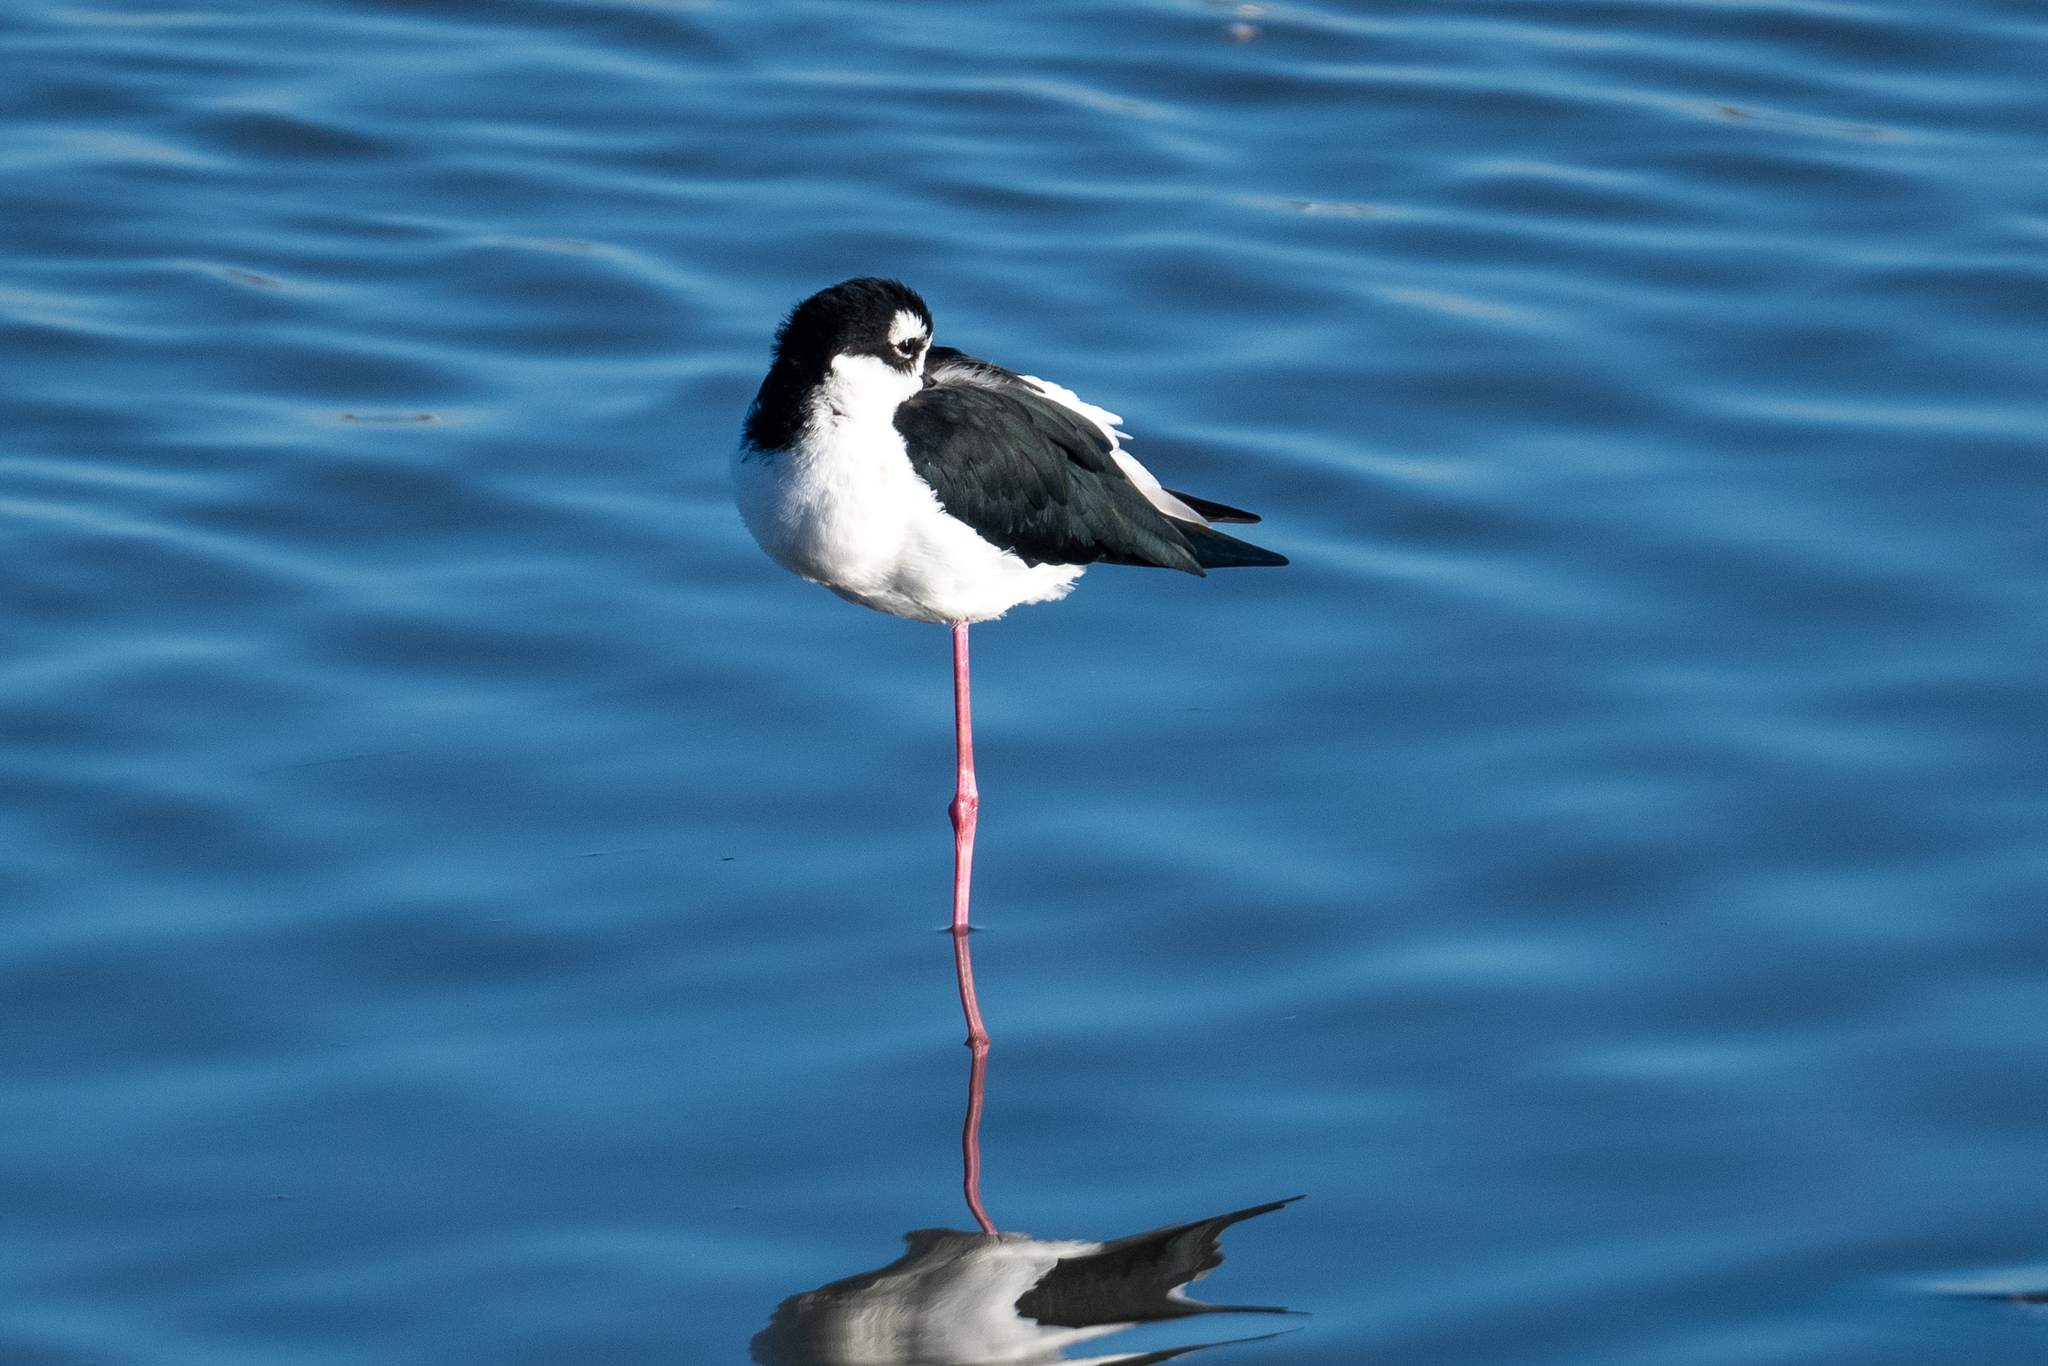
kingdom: Animalia
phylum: Chordata
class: Aves
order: Charadriiformes
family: Recurvirostridae
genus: Himantopus
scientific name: Himantopus mexicanus
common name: Black-necked stilt
